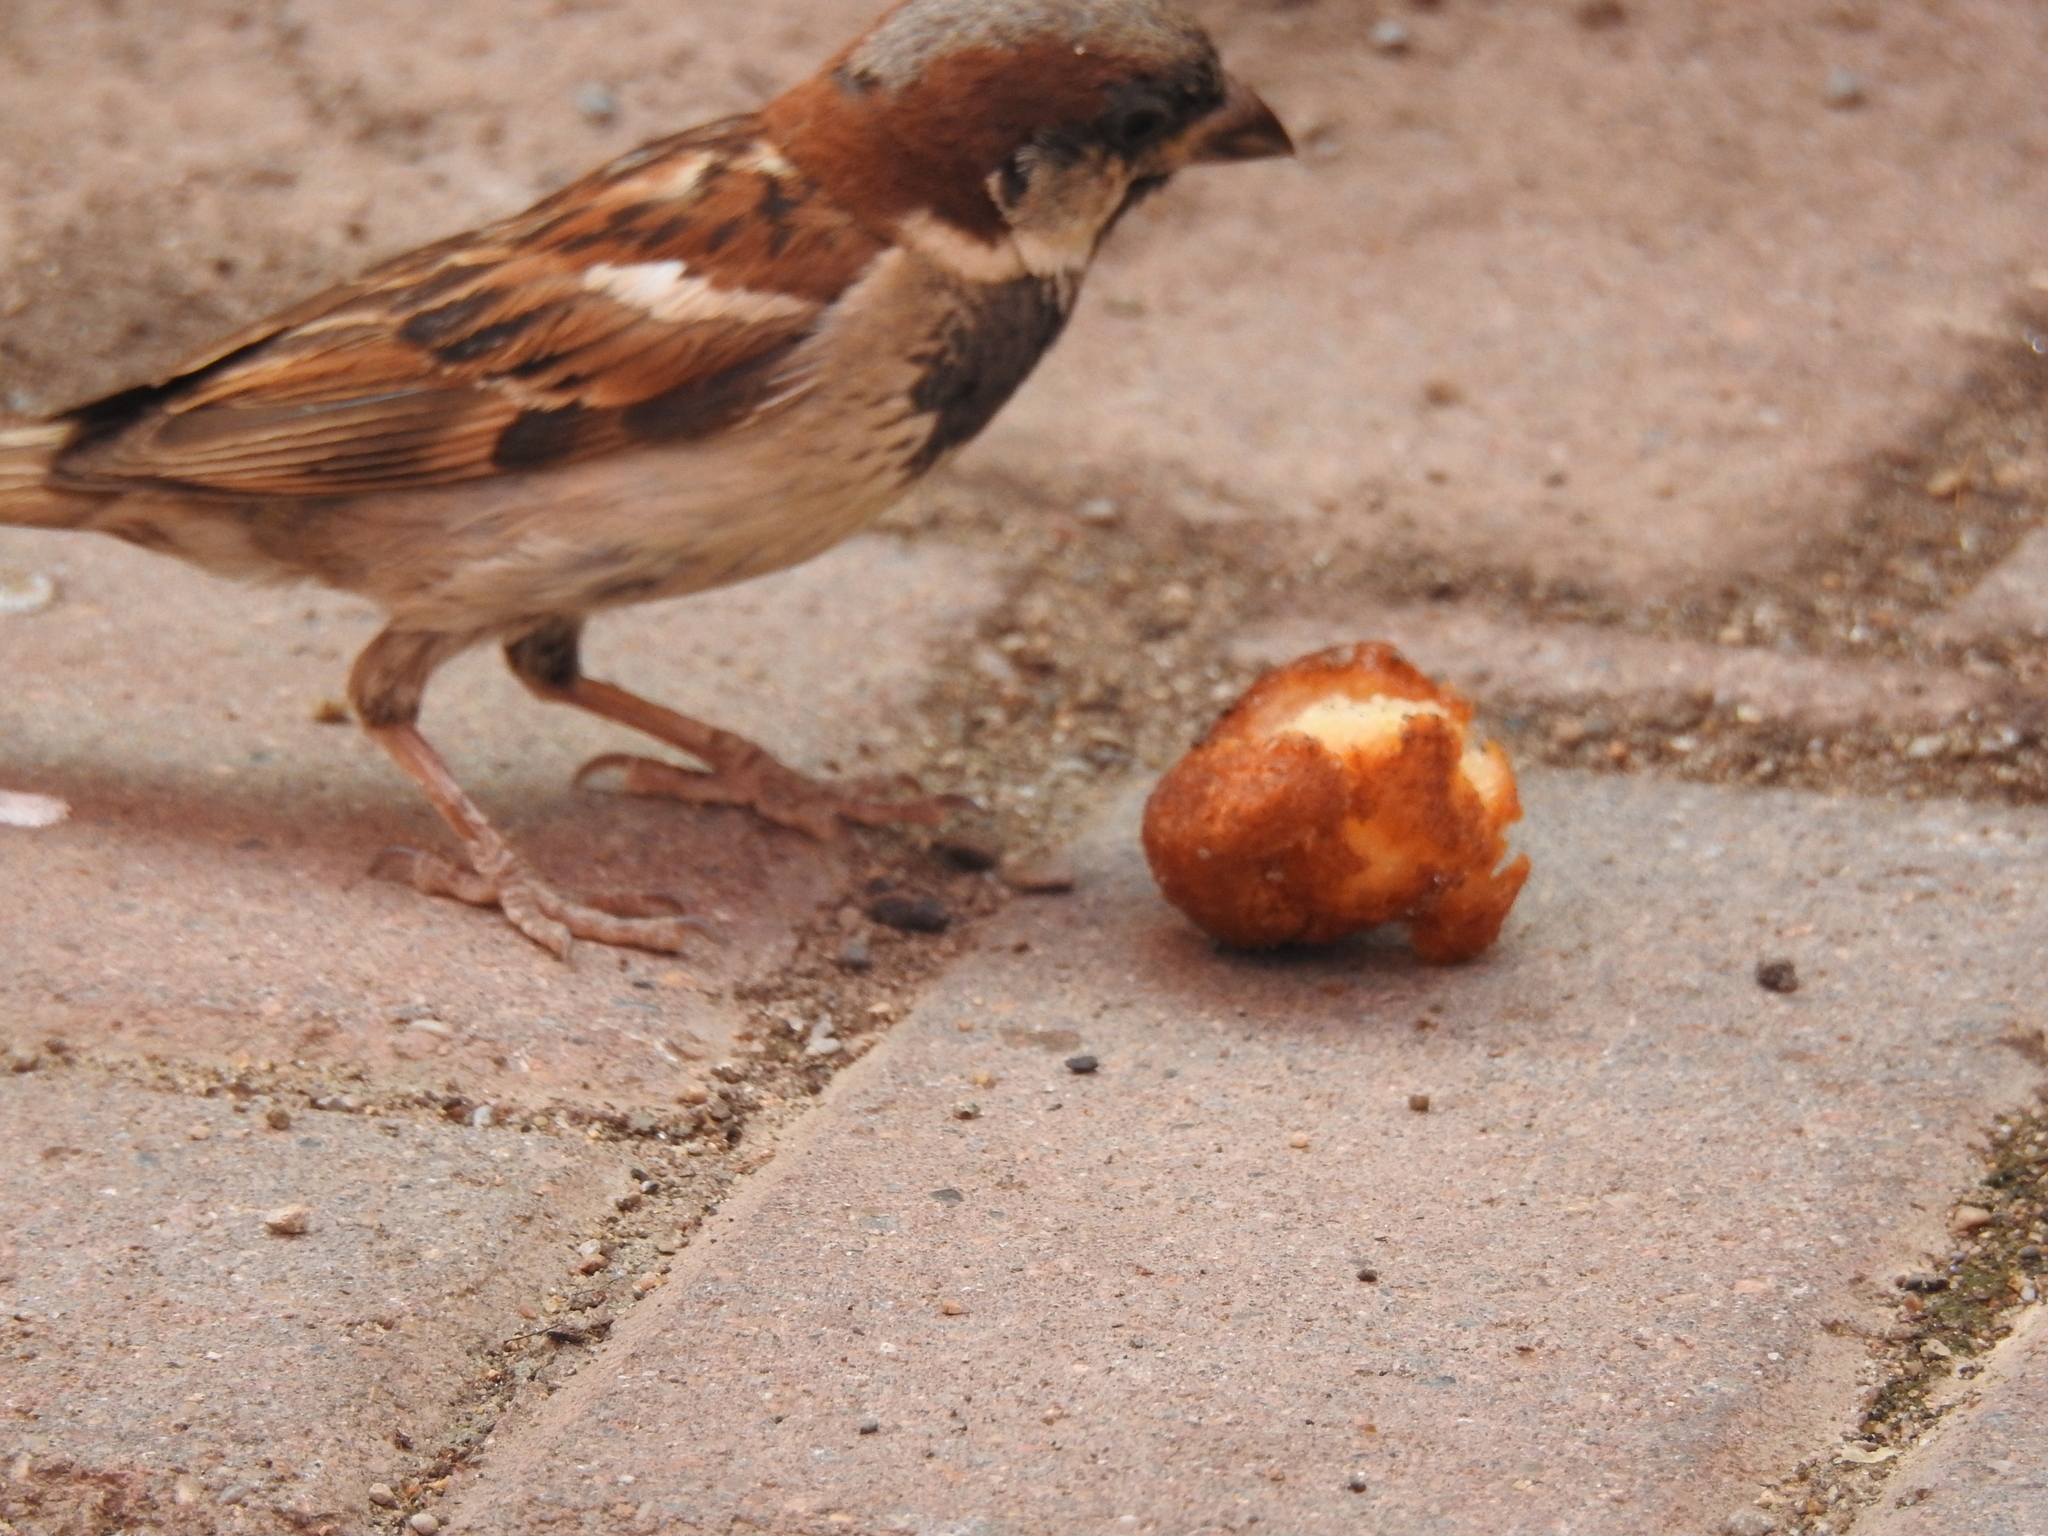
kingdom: Animalia
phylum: Chordata
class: Aves
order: Passeriformes
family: Passeridae
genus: Passer
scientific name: Passer domesticus
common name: House sparrow
